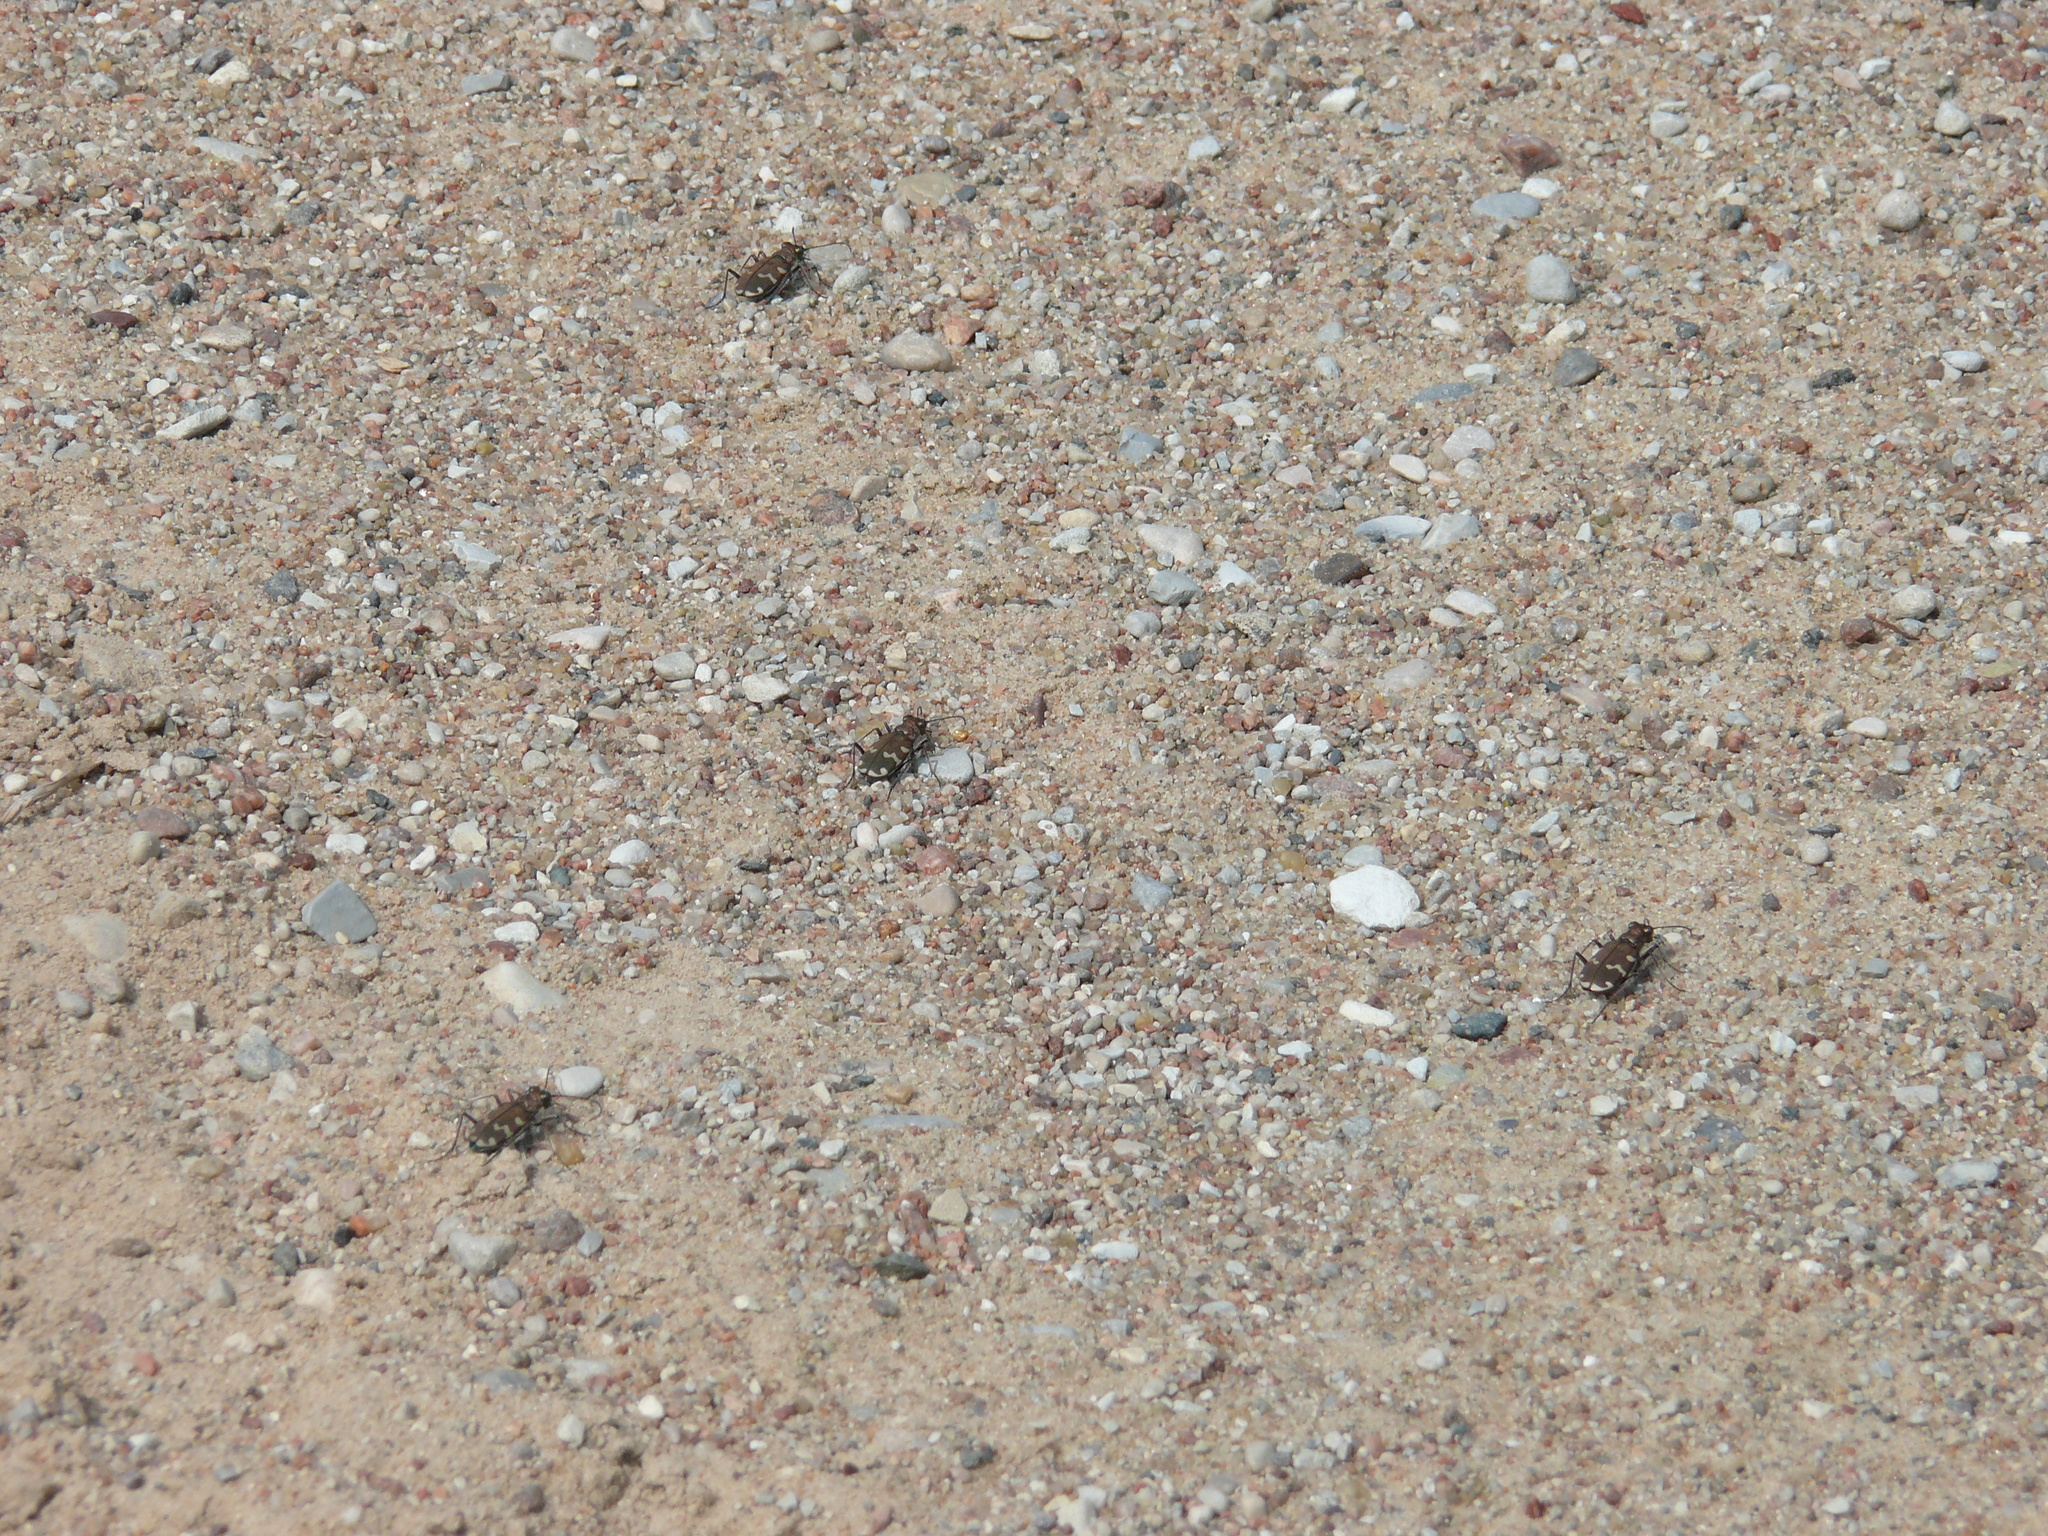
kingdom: Animalia
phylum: Arthropoda
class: Insecta
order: Coleoptera
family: Carabidae
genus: Cicindela
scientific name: Cicindela hybrida
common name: Northern dune tiger beetle
